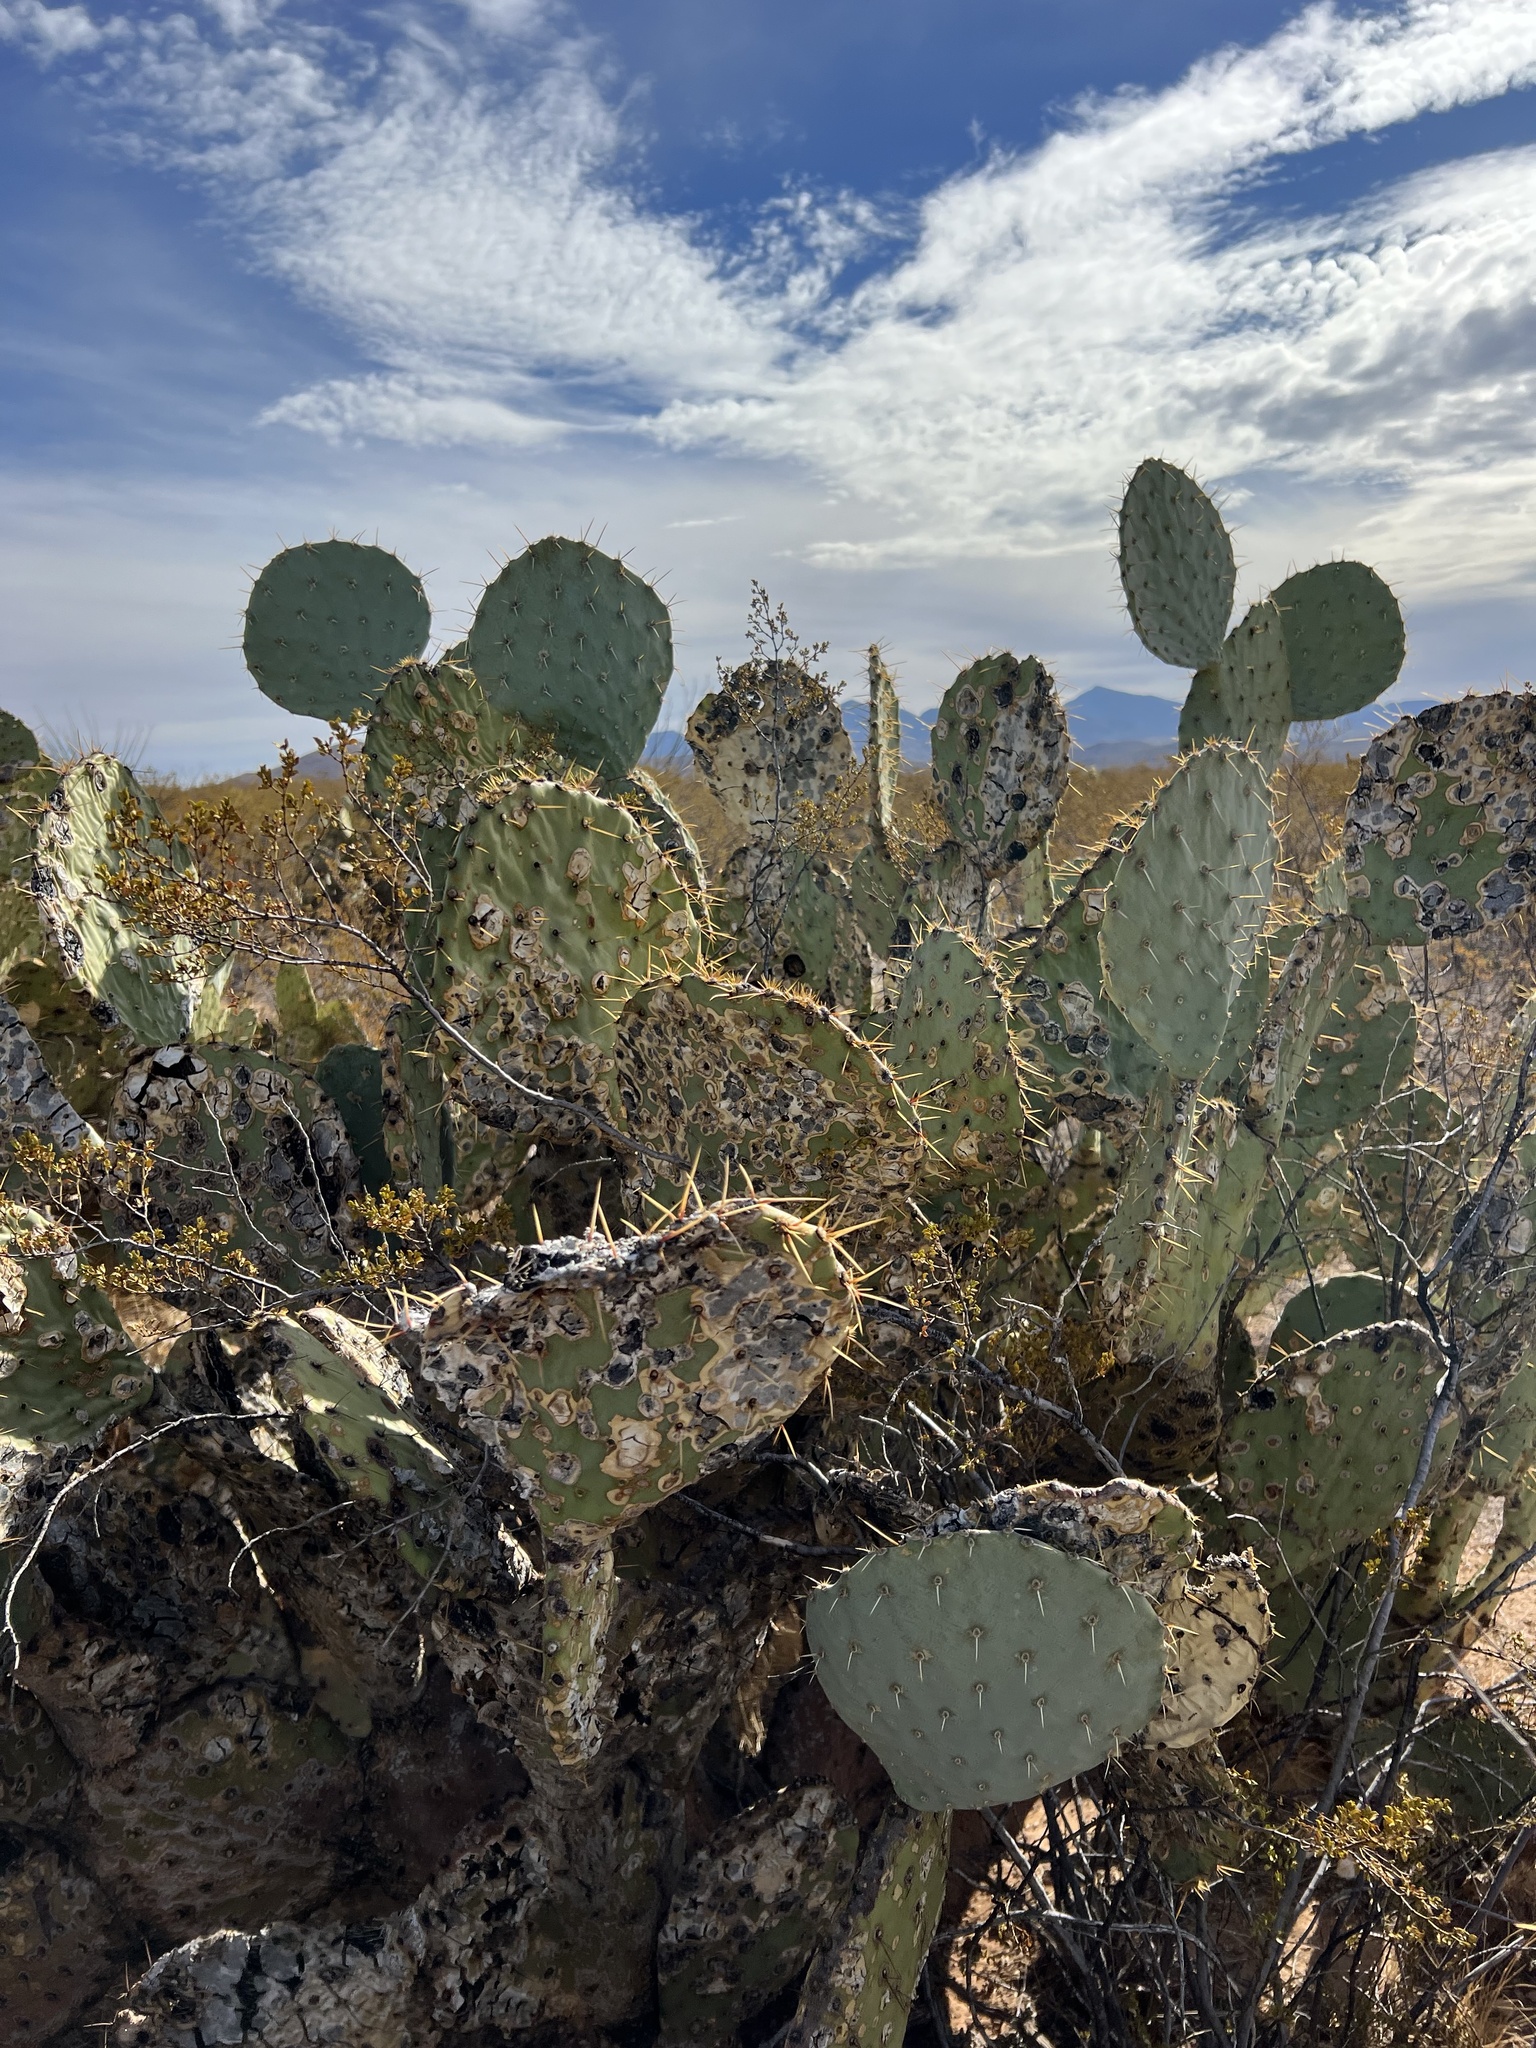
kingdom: Plantae
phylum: Tracheophyta
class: Magnoliopsida
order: Caryophyllales
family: Cactaceae
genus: Opuntia
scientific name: Opuntia engelmannii
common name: Cactus-apple
